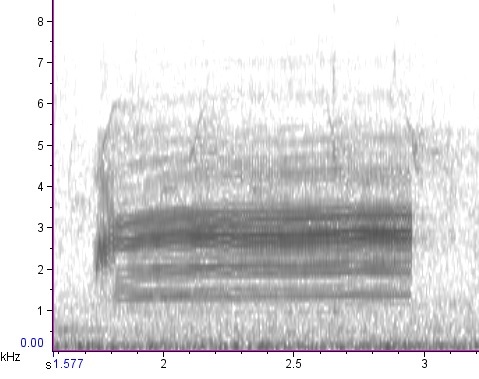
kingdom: Animalia
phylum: Chordata
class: Amphibia
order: Anura
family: Bufonidae
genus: Anaxyrus
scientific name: Anaxyrus fowleri
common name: Fowler's toad
